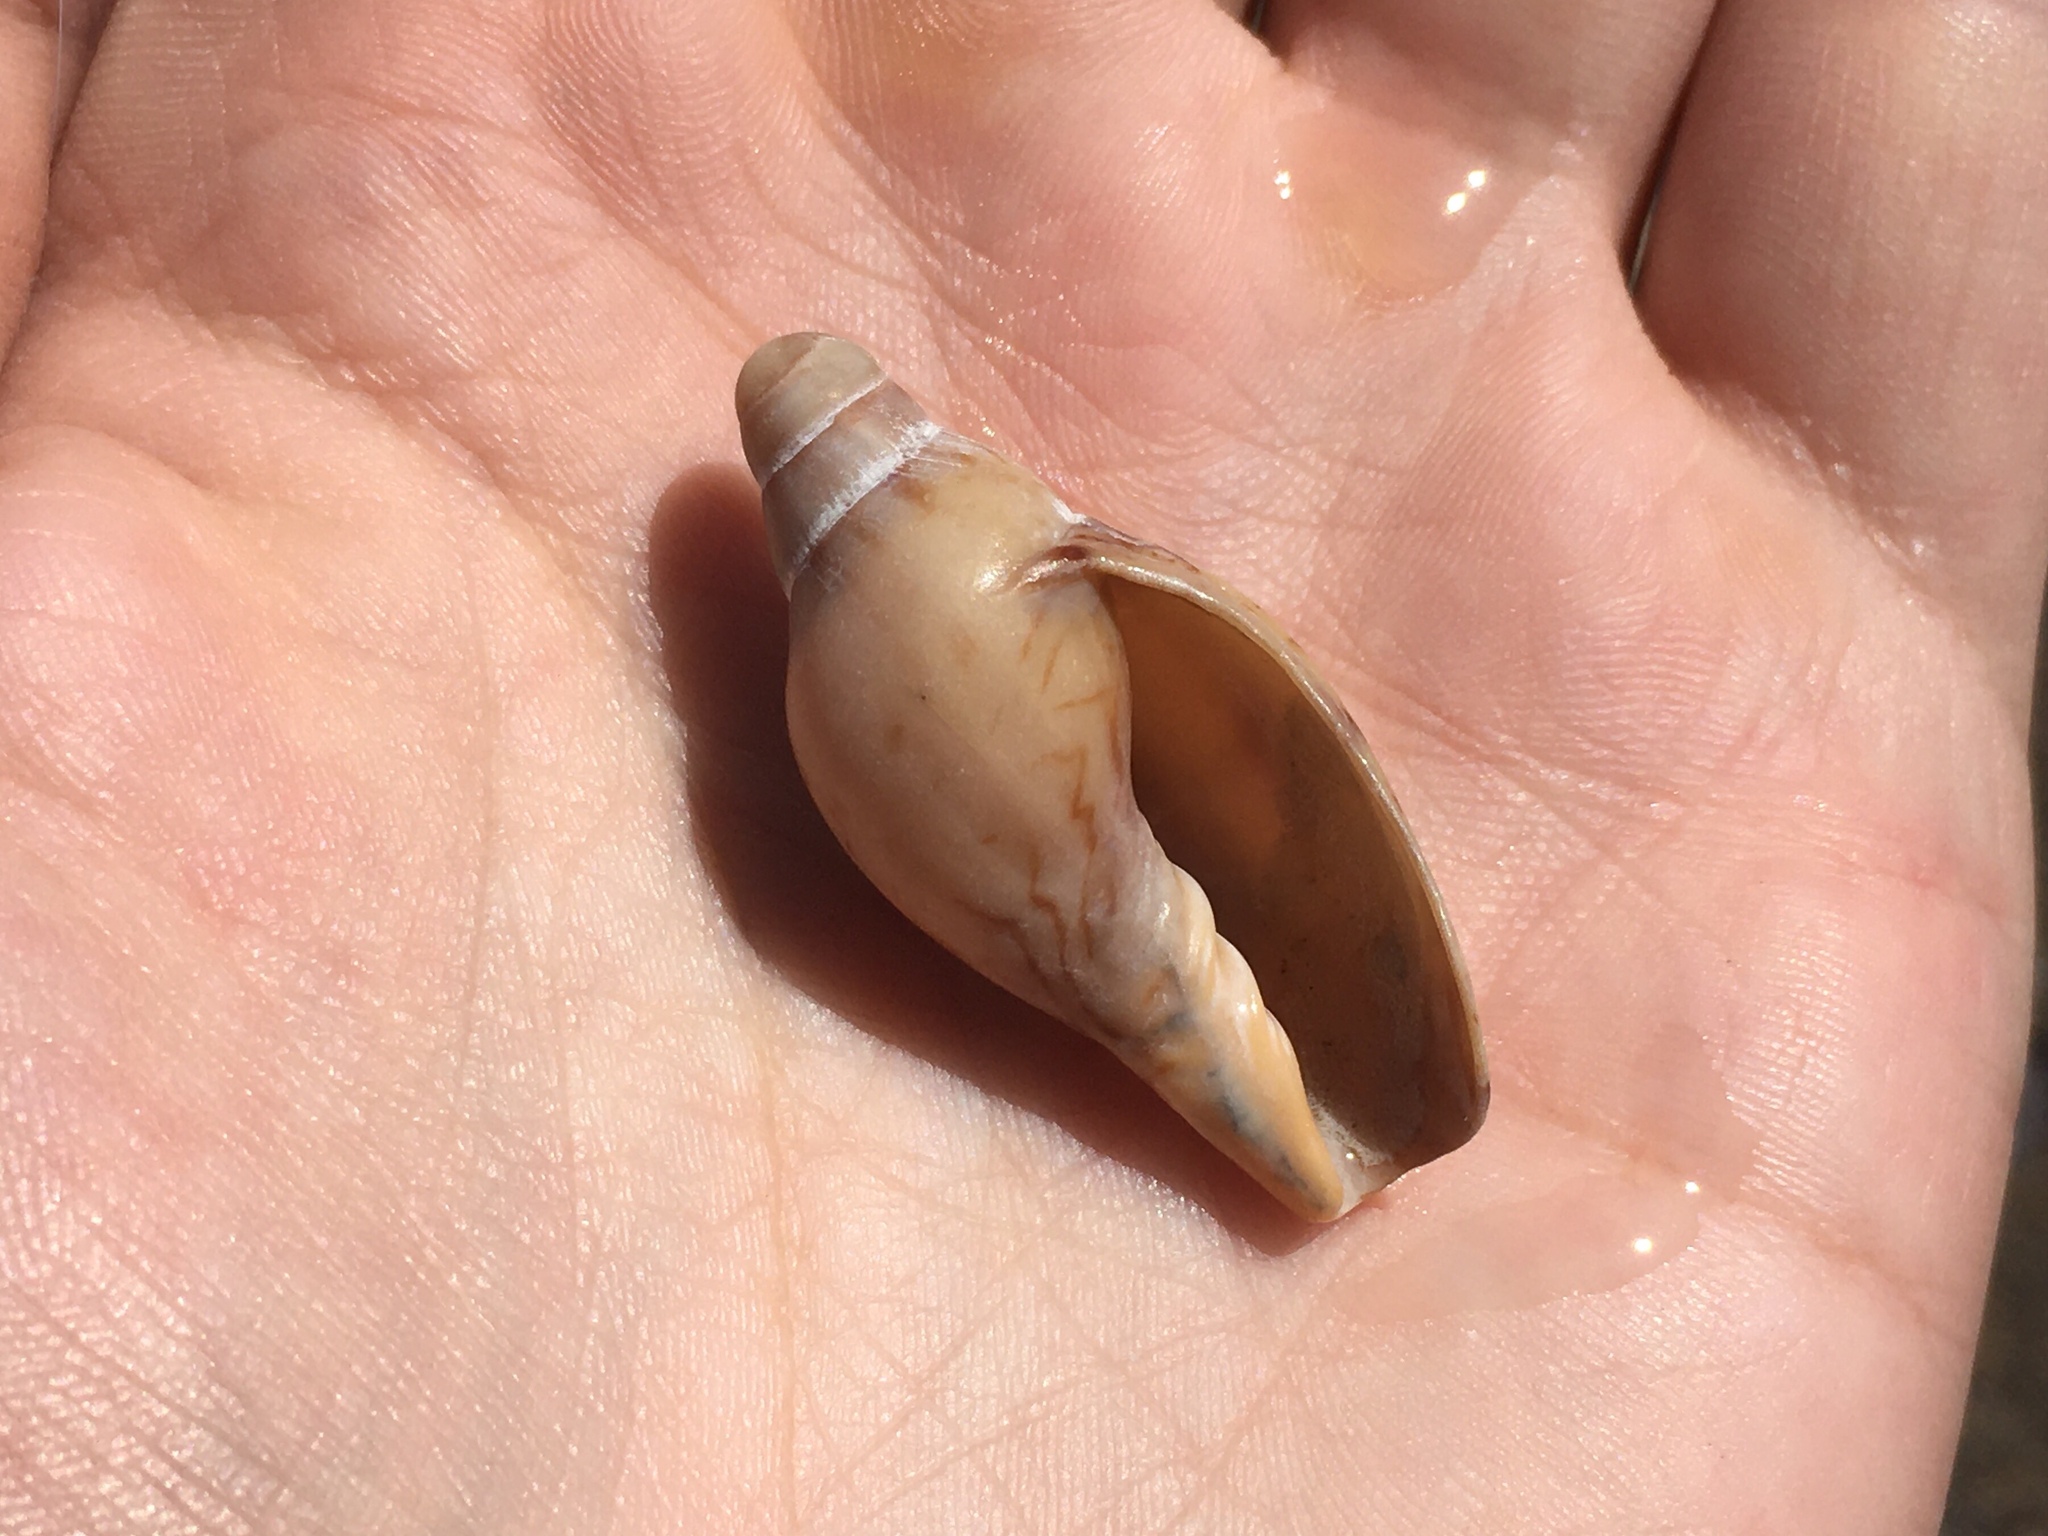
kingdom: Animalia
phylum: Mollusca
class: Gastropoda
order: Neogastropoda
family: Volutidae
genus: Odontocymbiola
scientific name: Odontocymbiola magellanica
